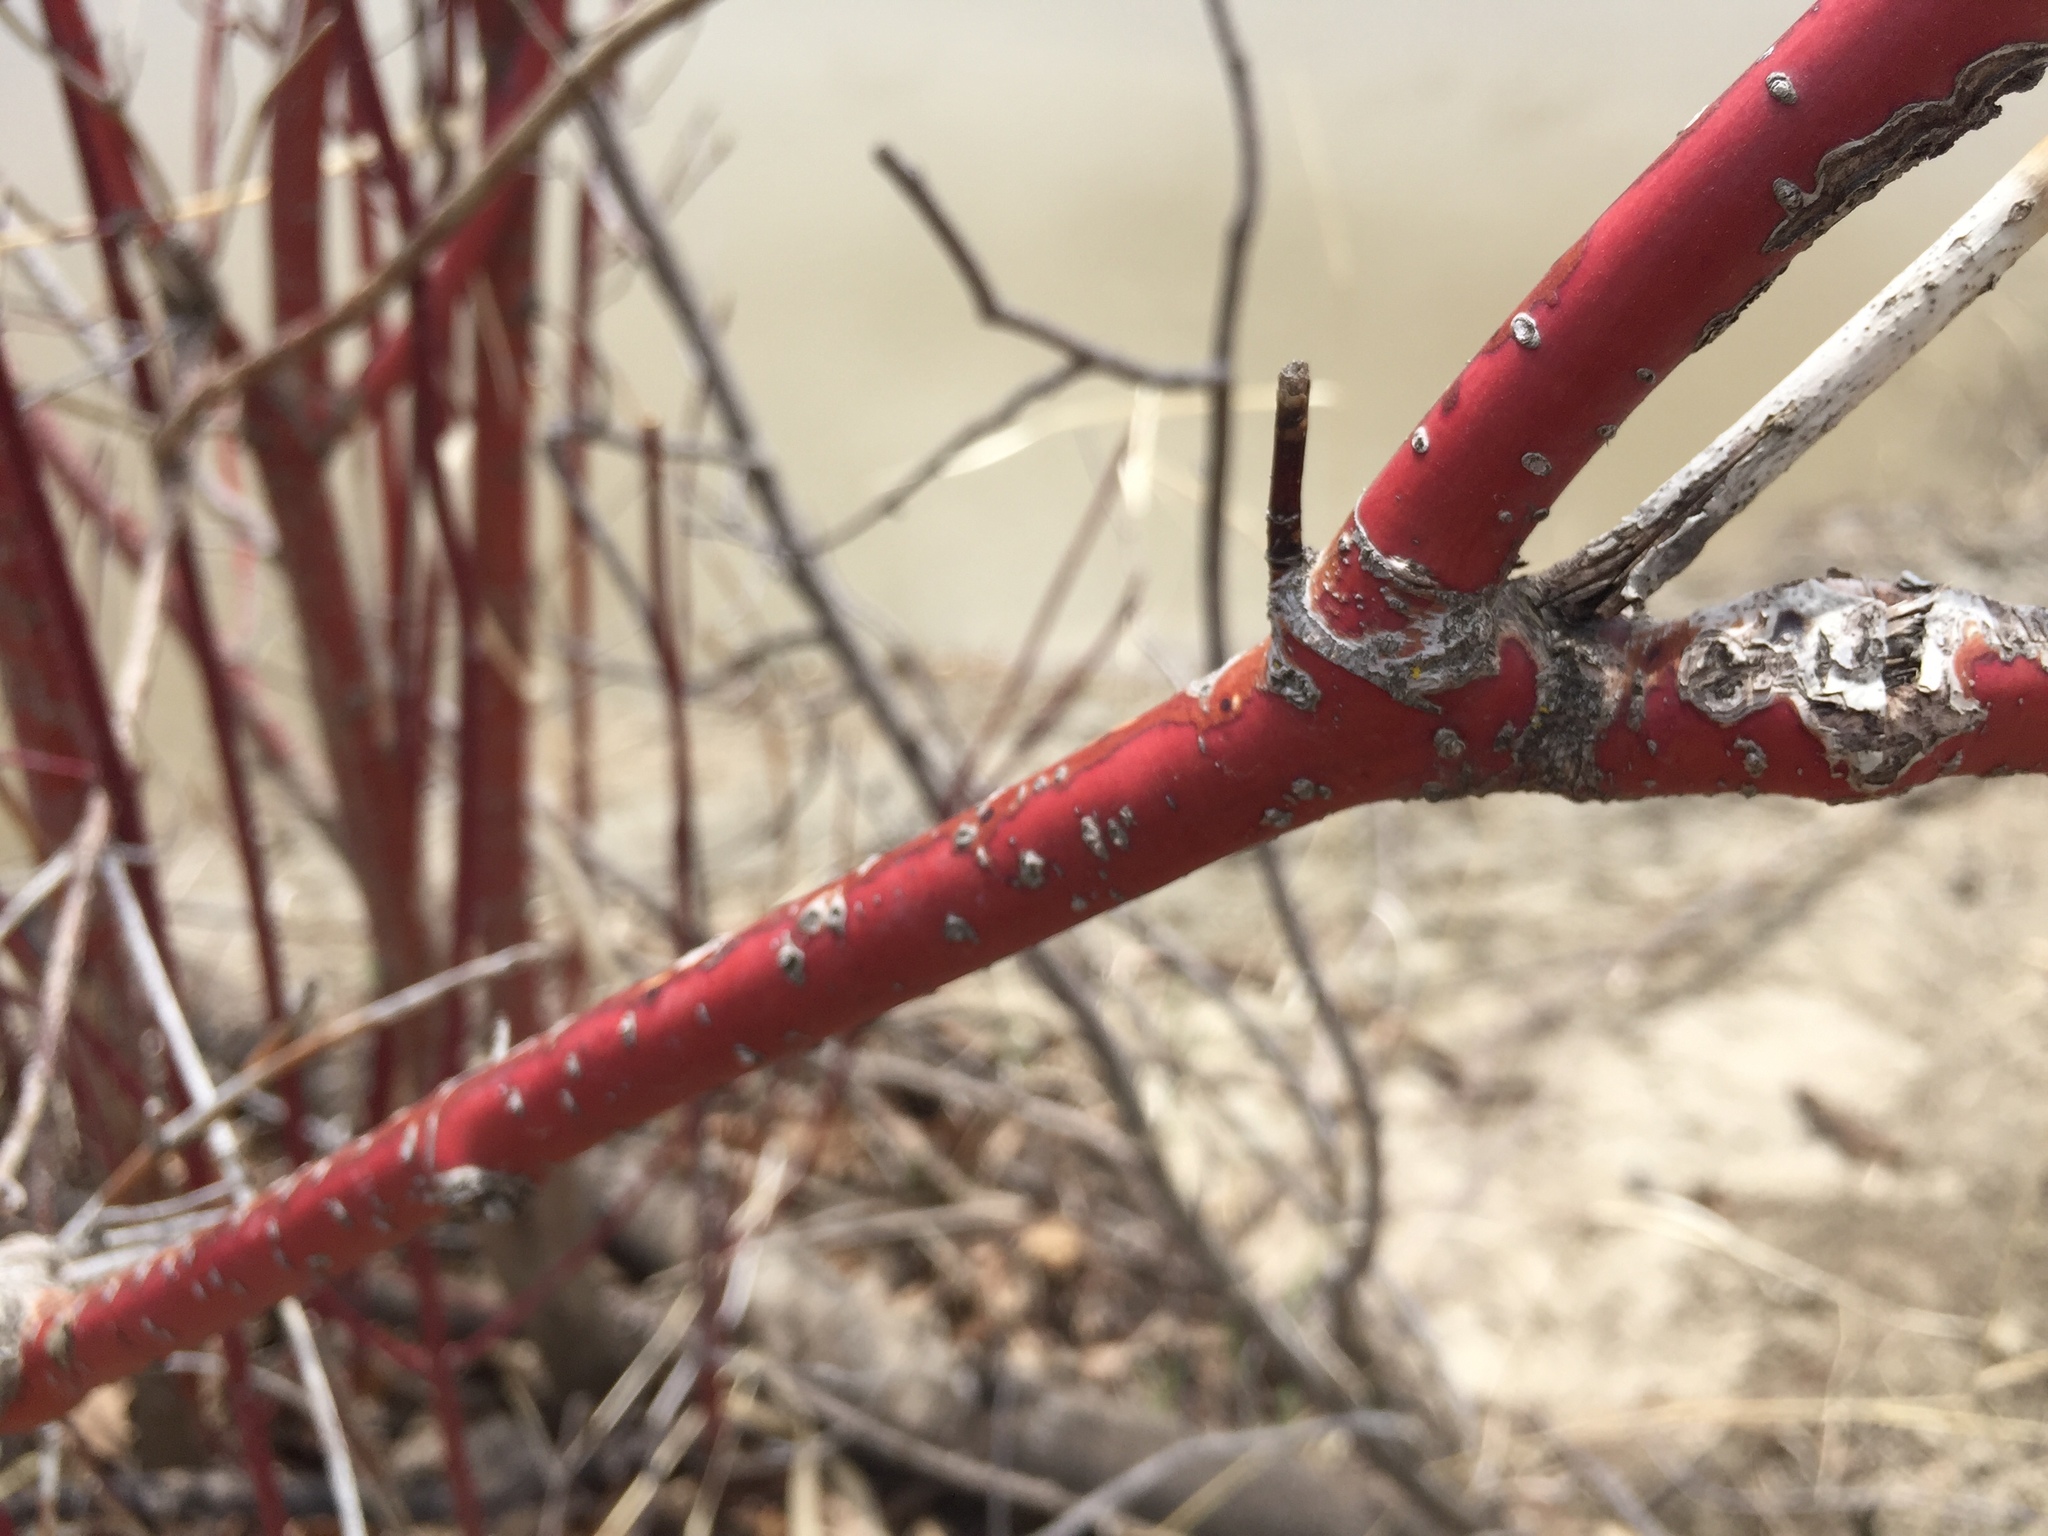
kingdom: Plantae
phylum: Tracheophyta
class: Magnoliopsida
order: Cornales
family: Cornaceae
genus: Cornus
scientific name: Cornus sericea
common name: Red-osier dogwood
